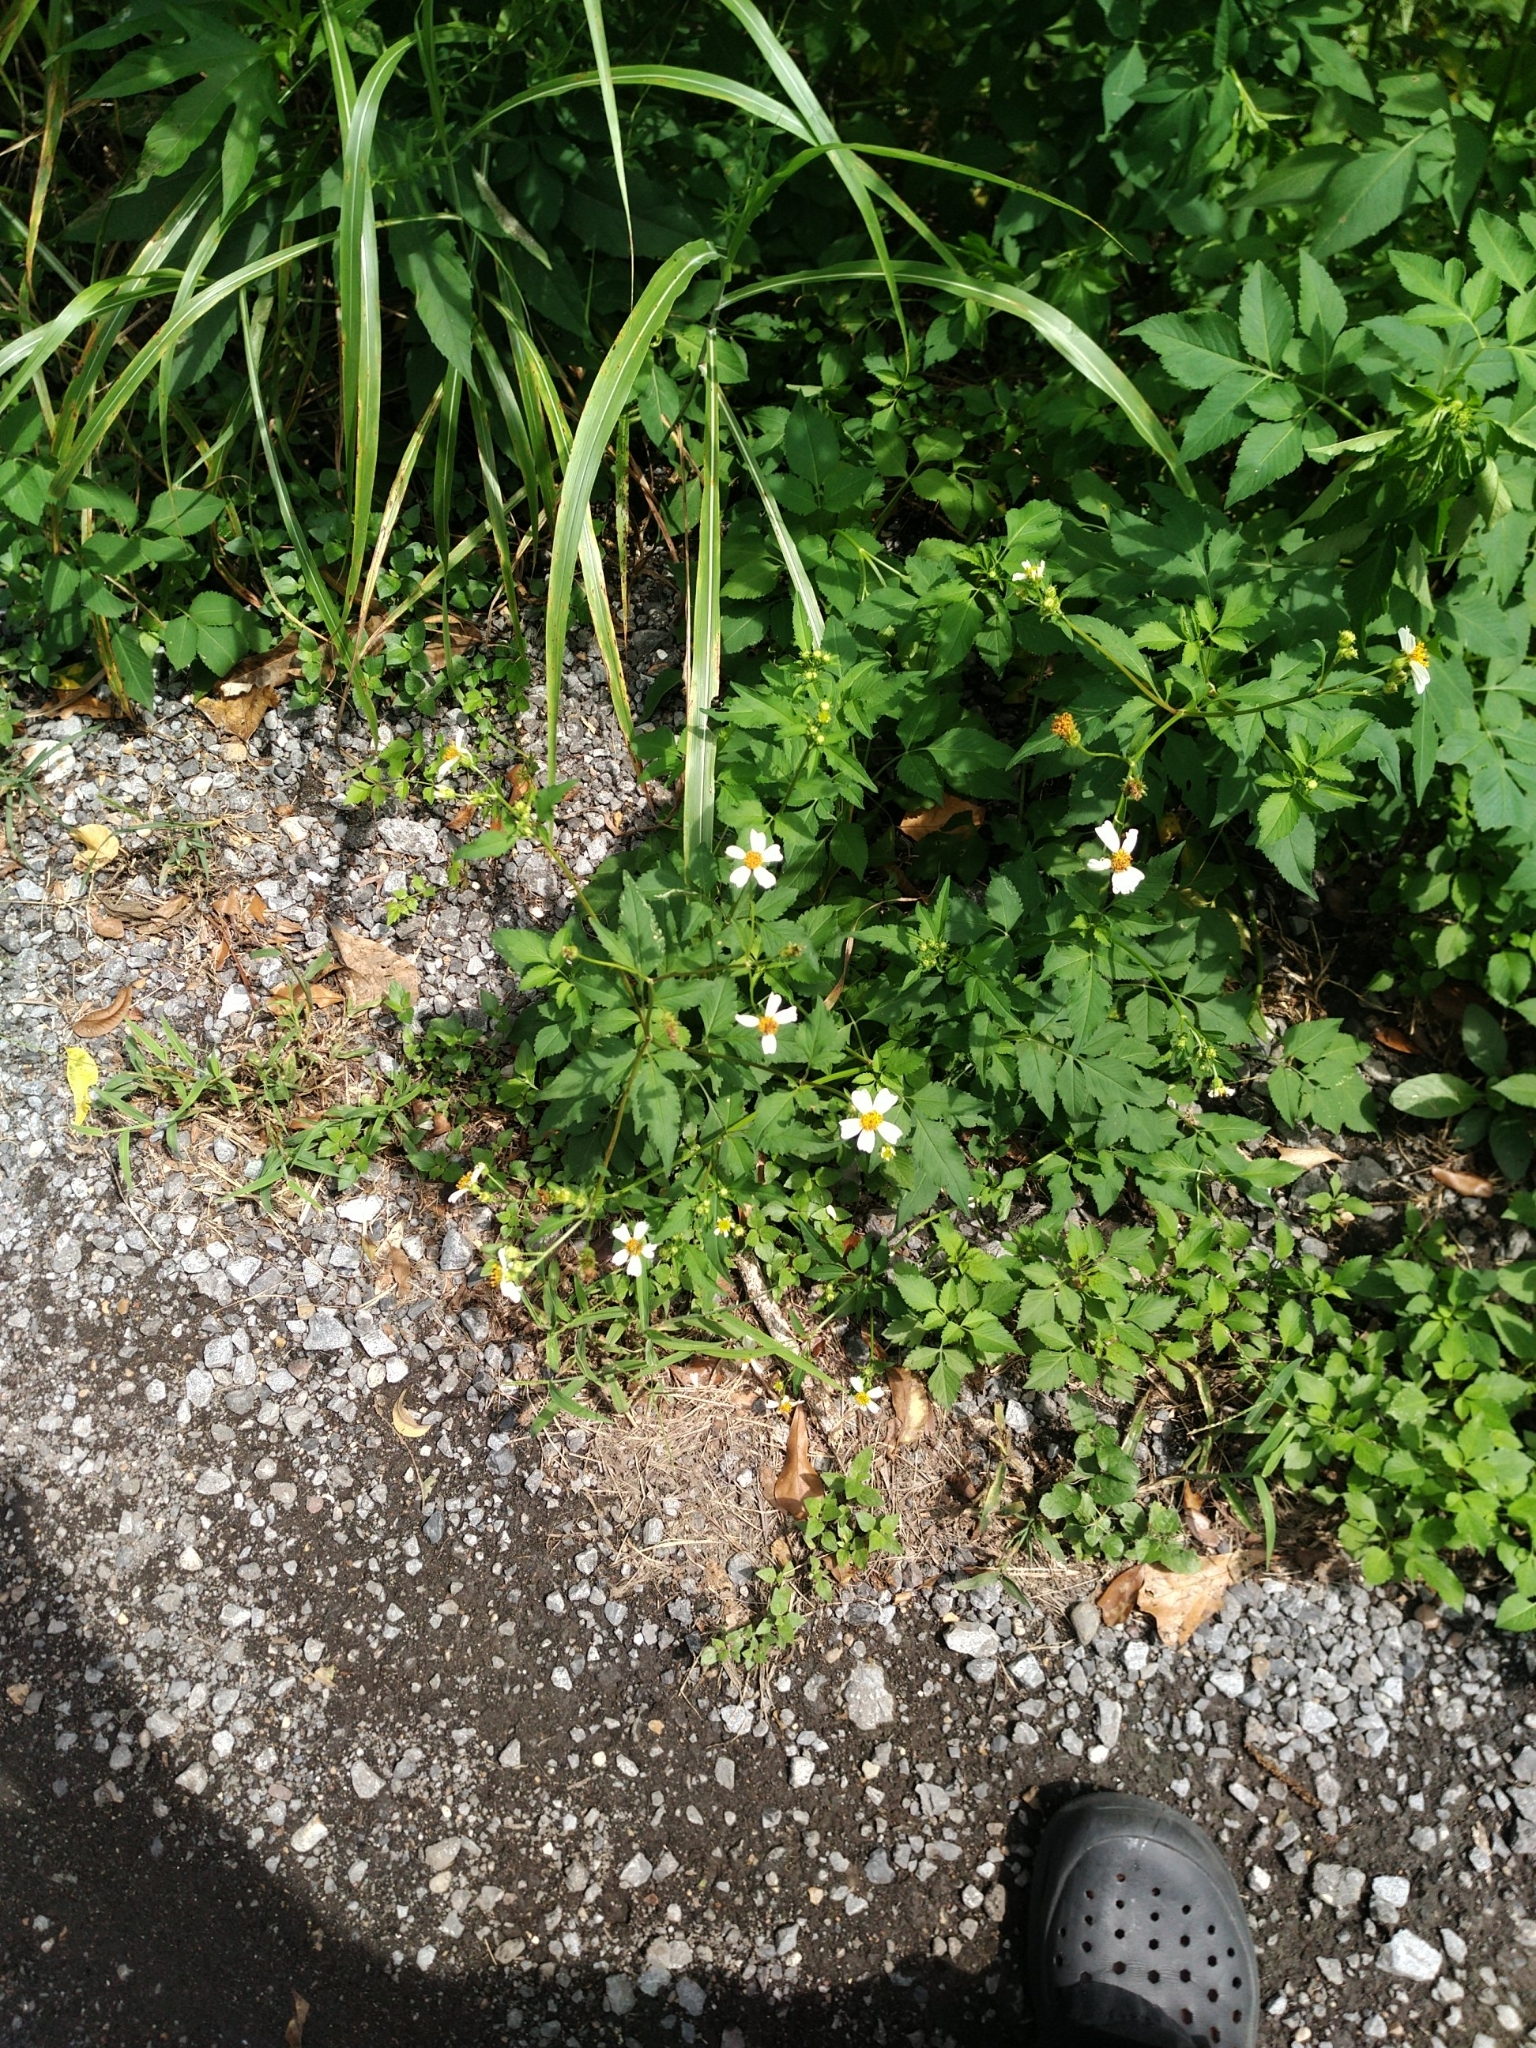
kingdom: Plantae
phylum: Tracheophyta
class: Magnoliopsida
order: Asterales
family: Asteraceae
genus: Bidens
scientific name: Bidens alba
